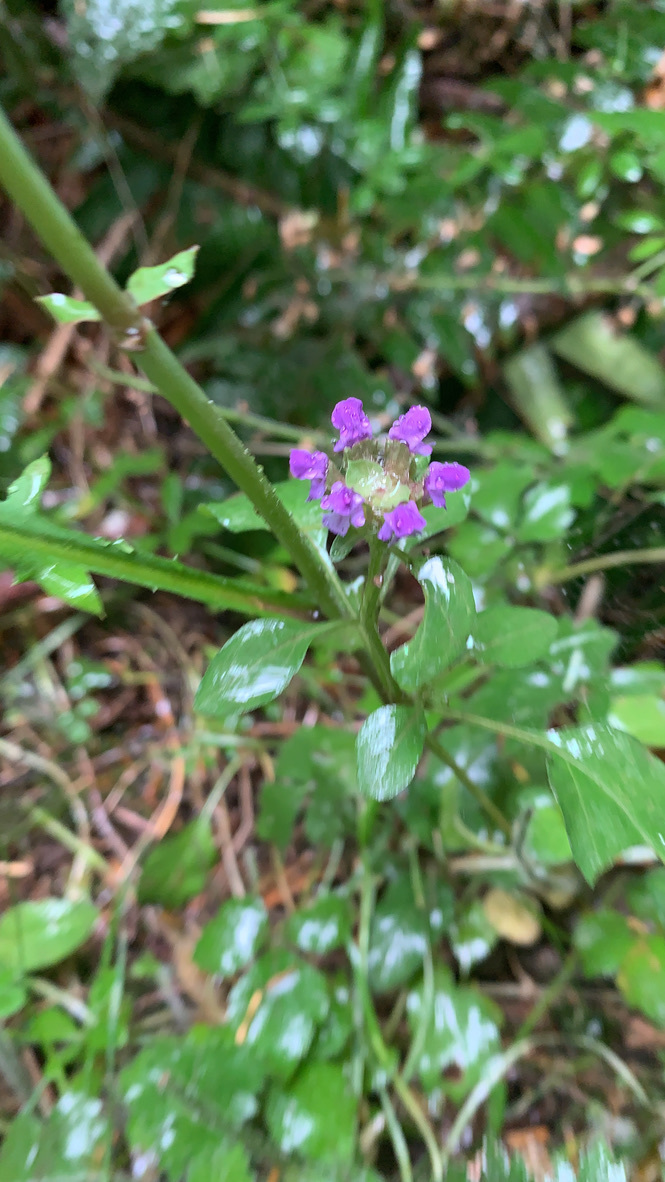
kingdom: Plantae
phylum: Tracheophyta
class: Magnoliopsida
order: Lamiales
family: Lamiaceae
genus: Prunella
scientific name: Prunella vulgaris
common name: Heal-all
